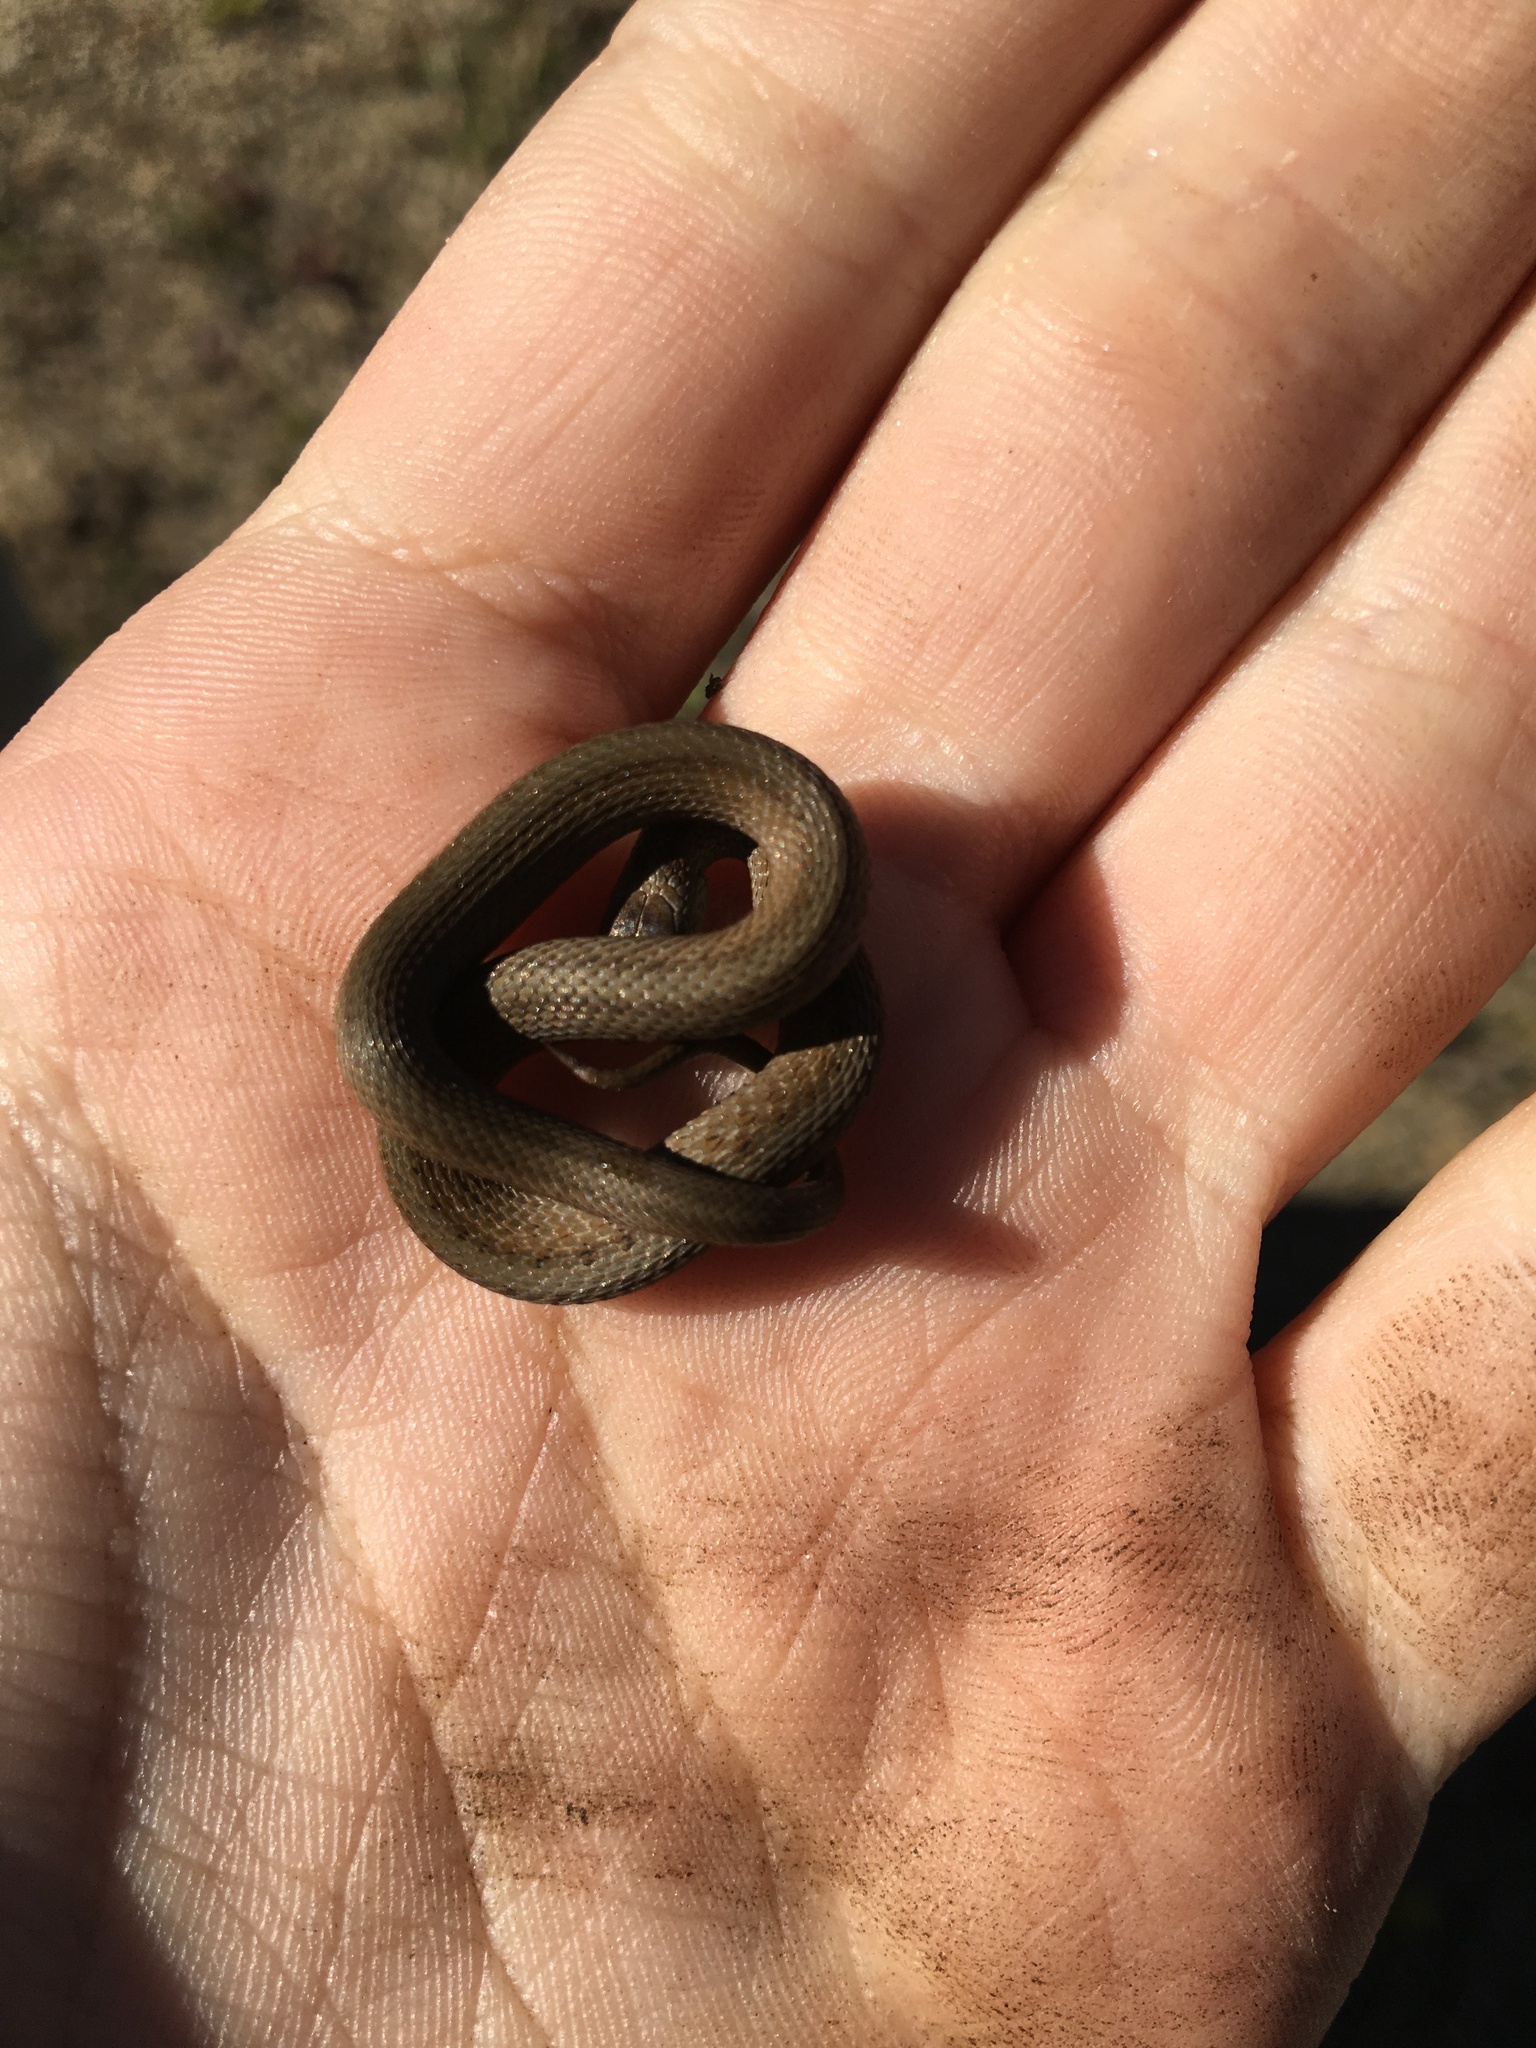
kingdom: Animalia
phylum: Chordata
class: Squamata
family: Colubridae
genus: Storeria
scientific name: Storeria dekayi
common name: (dekay’s) brown snake
